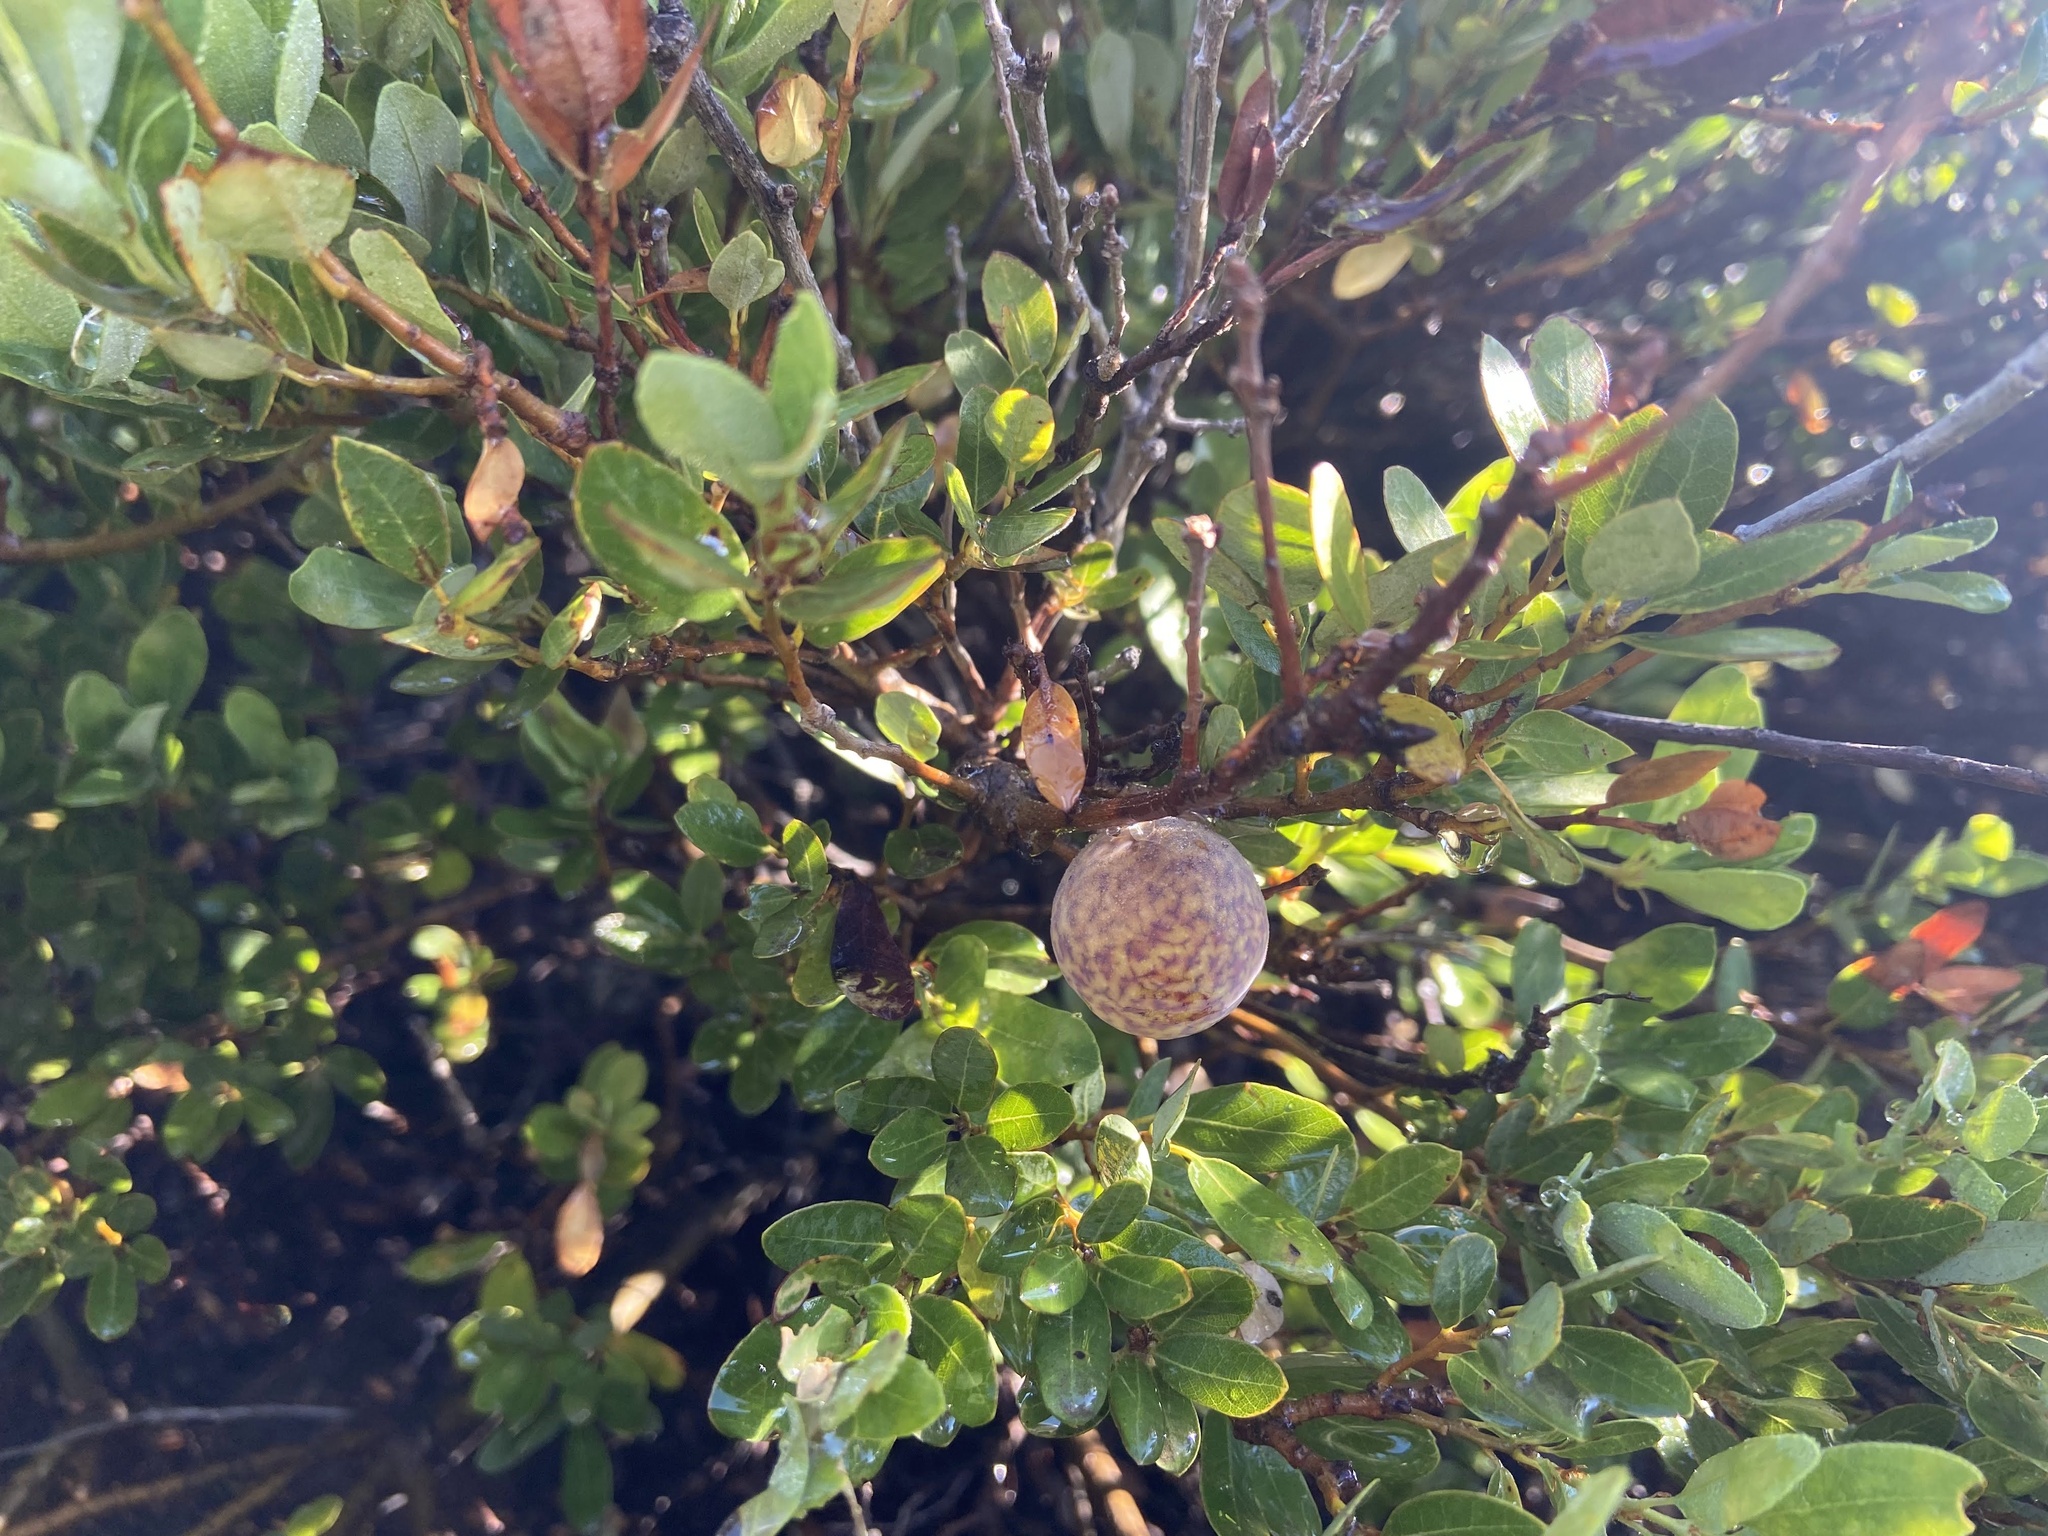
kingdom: Plantae
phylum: Tracheophyta
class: Magnoliopsida
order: Fagales
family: Fagaceae
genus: Quercus
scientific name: Quercus vacciniifolia
